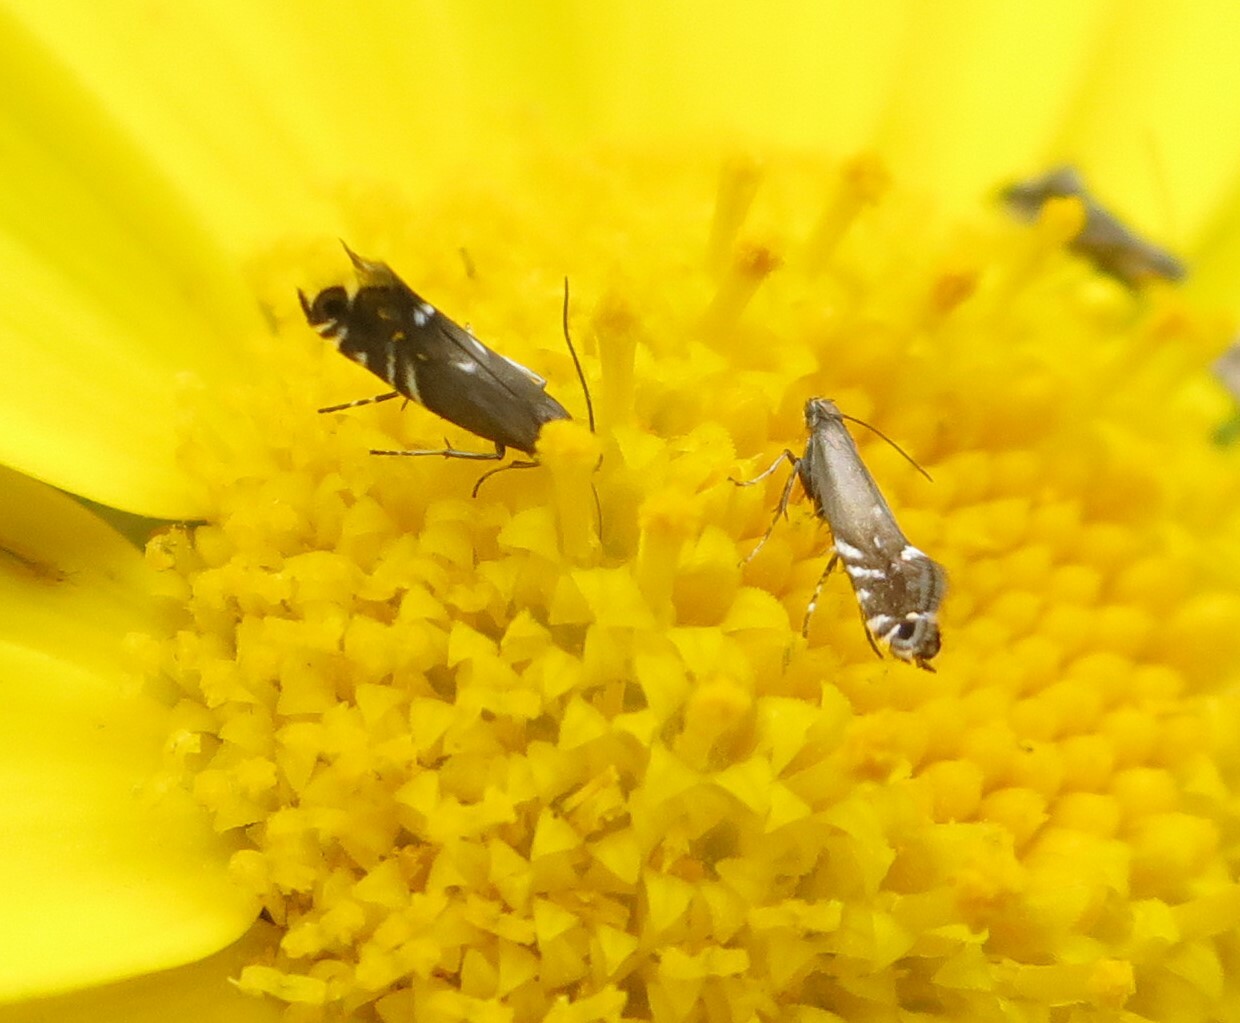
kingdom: Animalia
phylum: Arthropoda
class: Insecta
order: Lepidoptera
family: Glyphipterigidae
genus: Glyphipterix
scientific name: Glyphipterix simpliciella
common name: Cocksfoot moth
